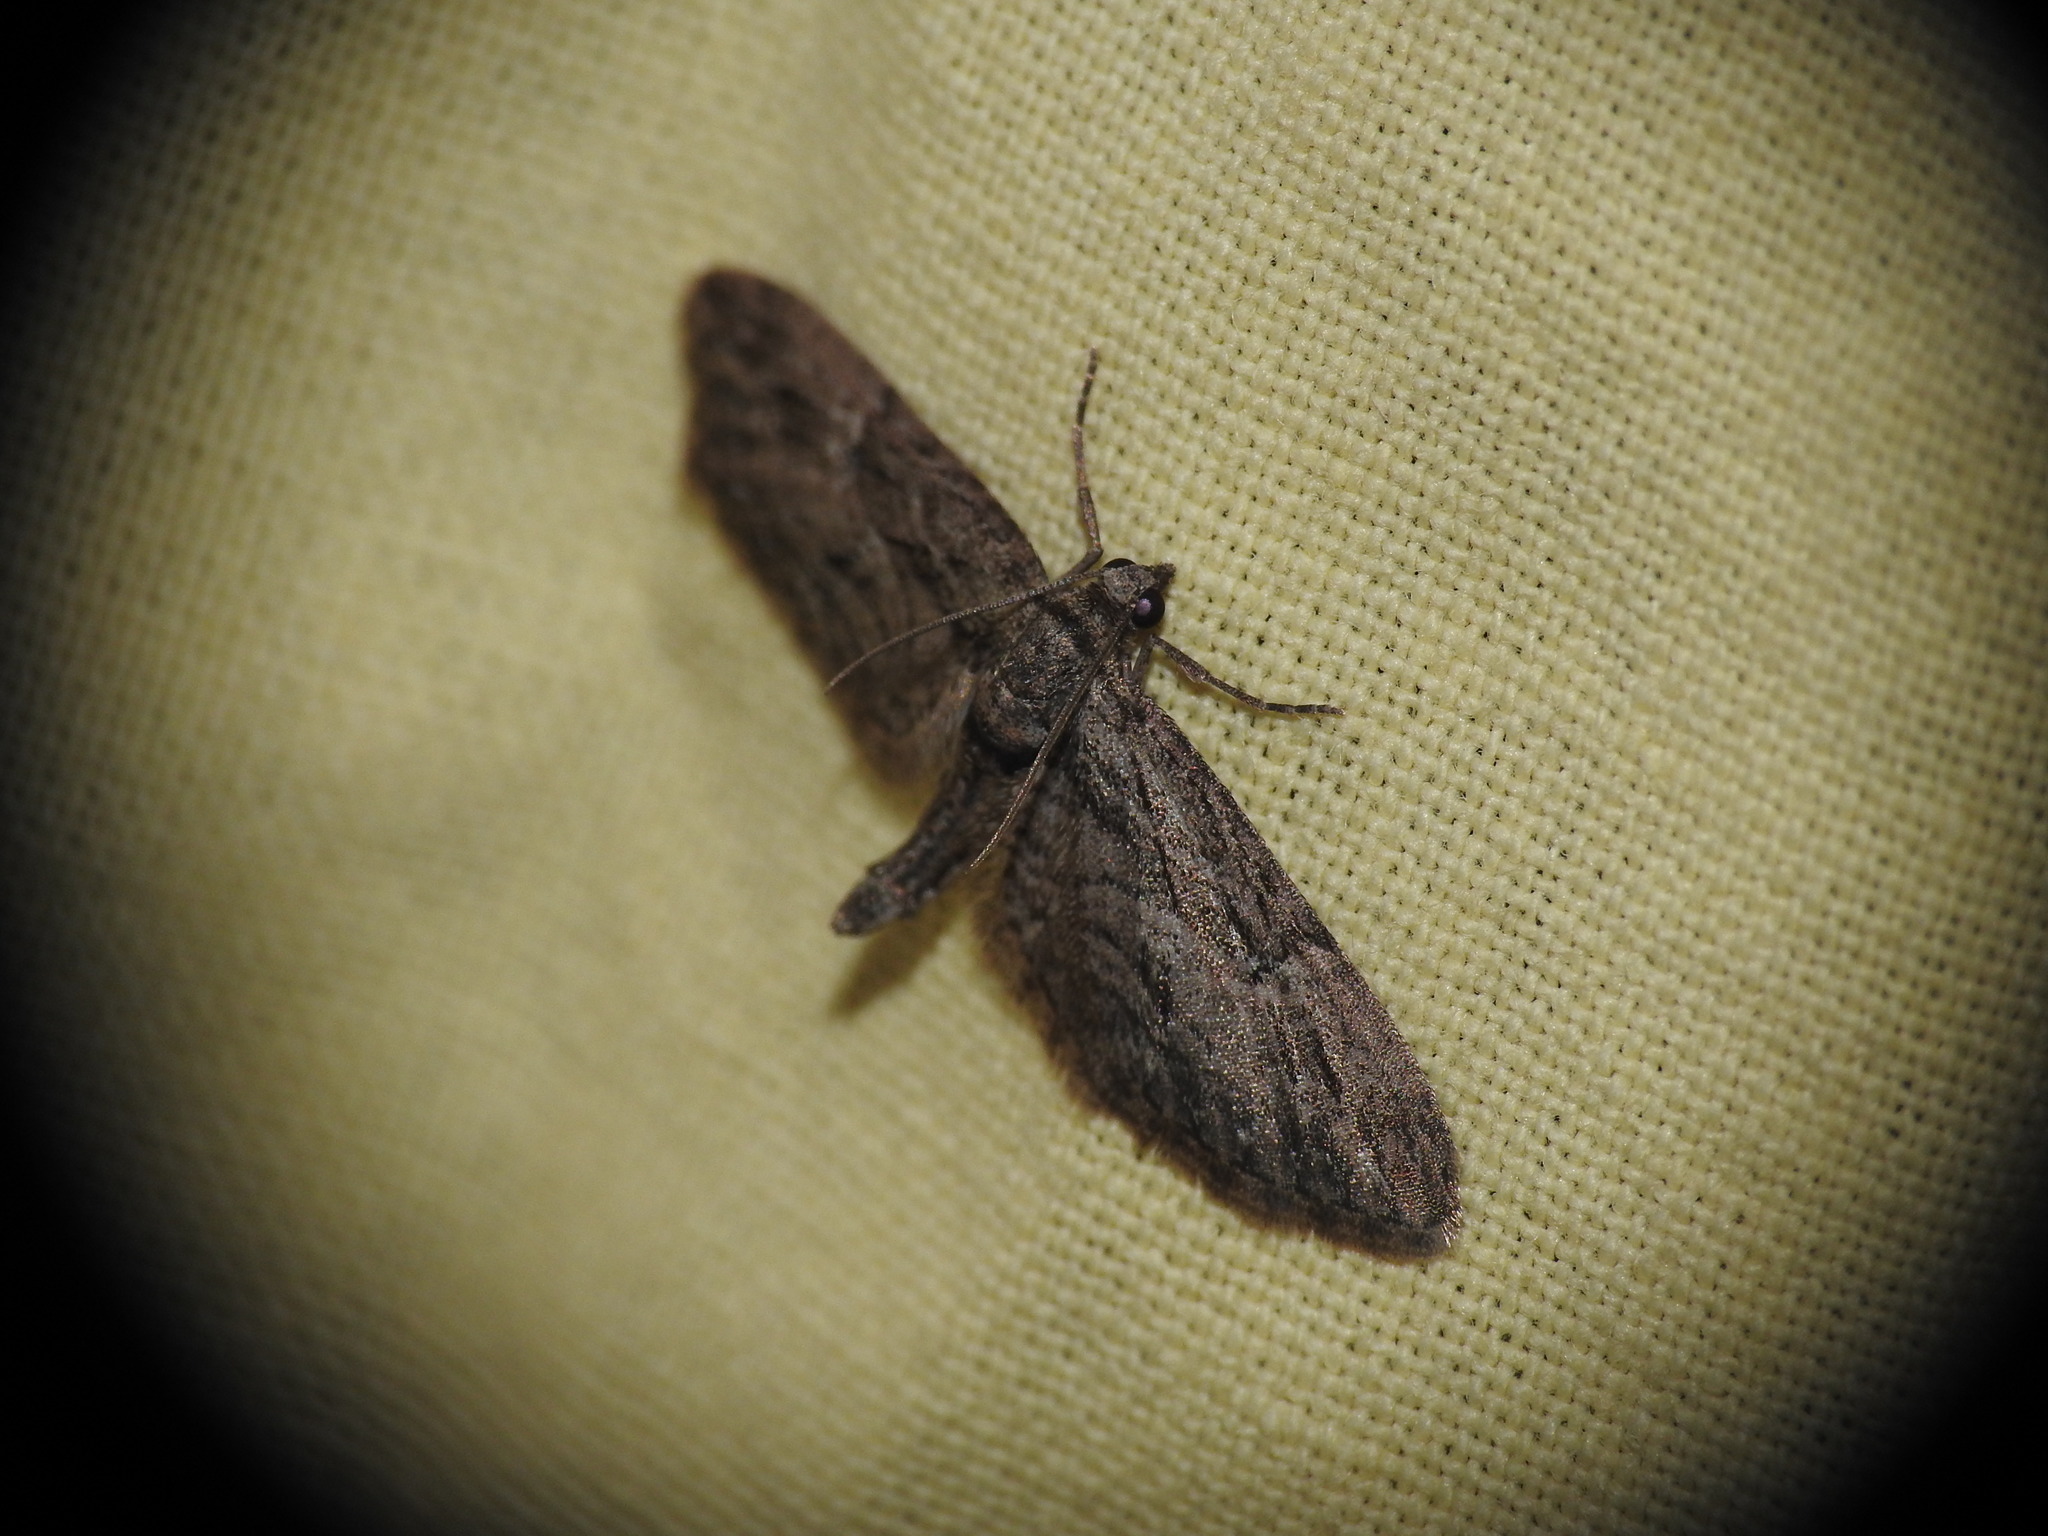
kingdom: Animalia
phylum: Arthropoda
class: Insecta
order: Lepidoptera
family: Geometridae
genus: Eupithecia
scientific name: Eupithecia oxycedrata
